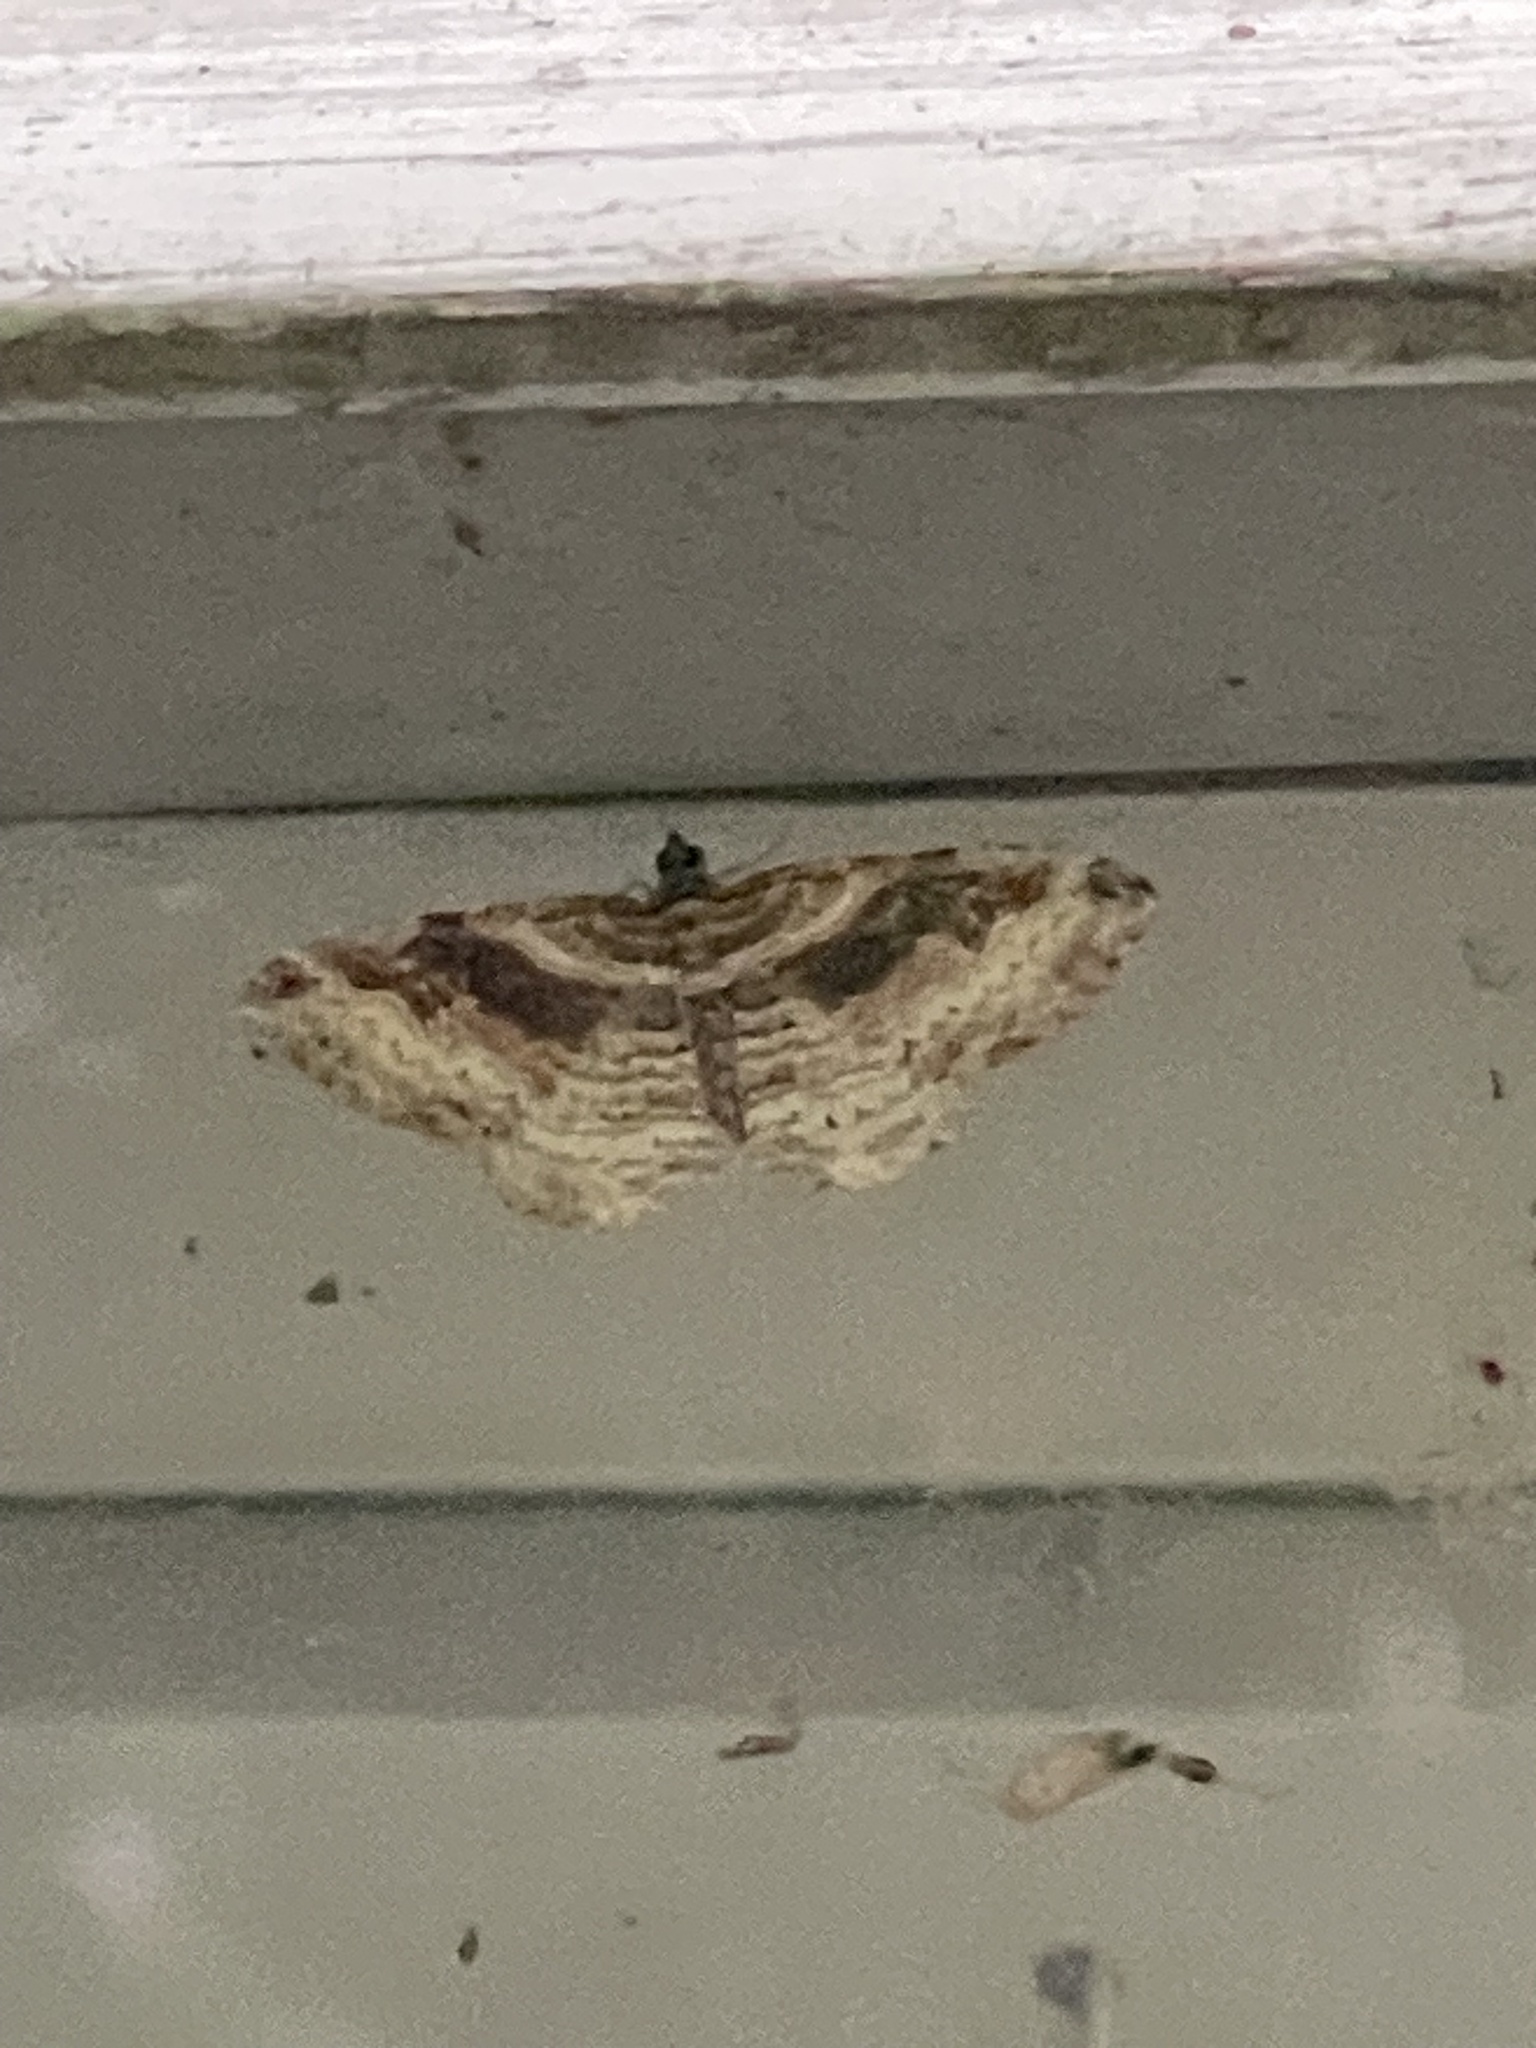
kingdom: Animalia
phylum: Arthropoda
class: Insecta
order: Lepidoptera
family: Geometridae
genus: Costaconvexa
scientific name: Costaconvexa centrostrigaria
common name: Bent-line carpet
